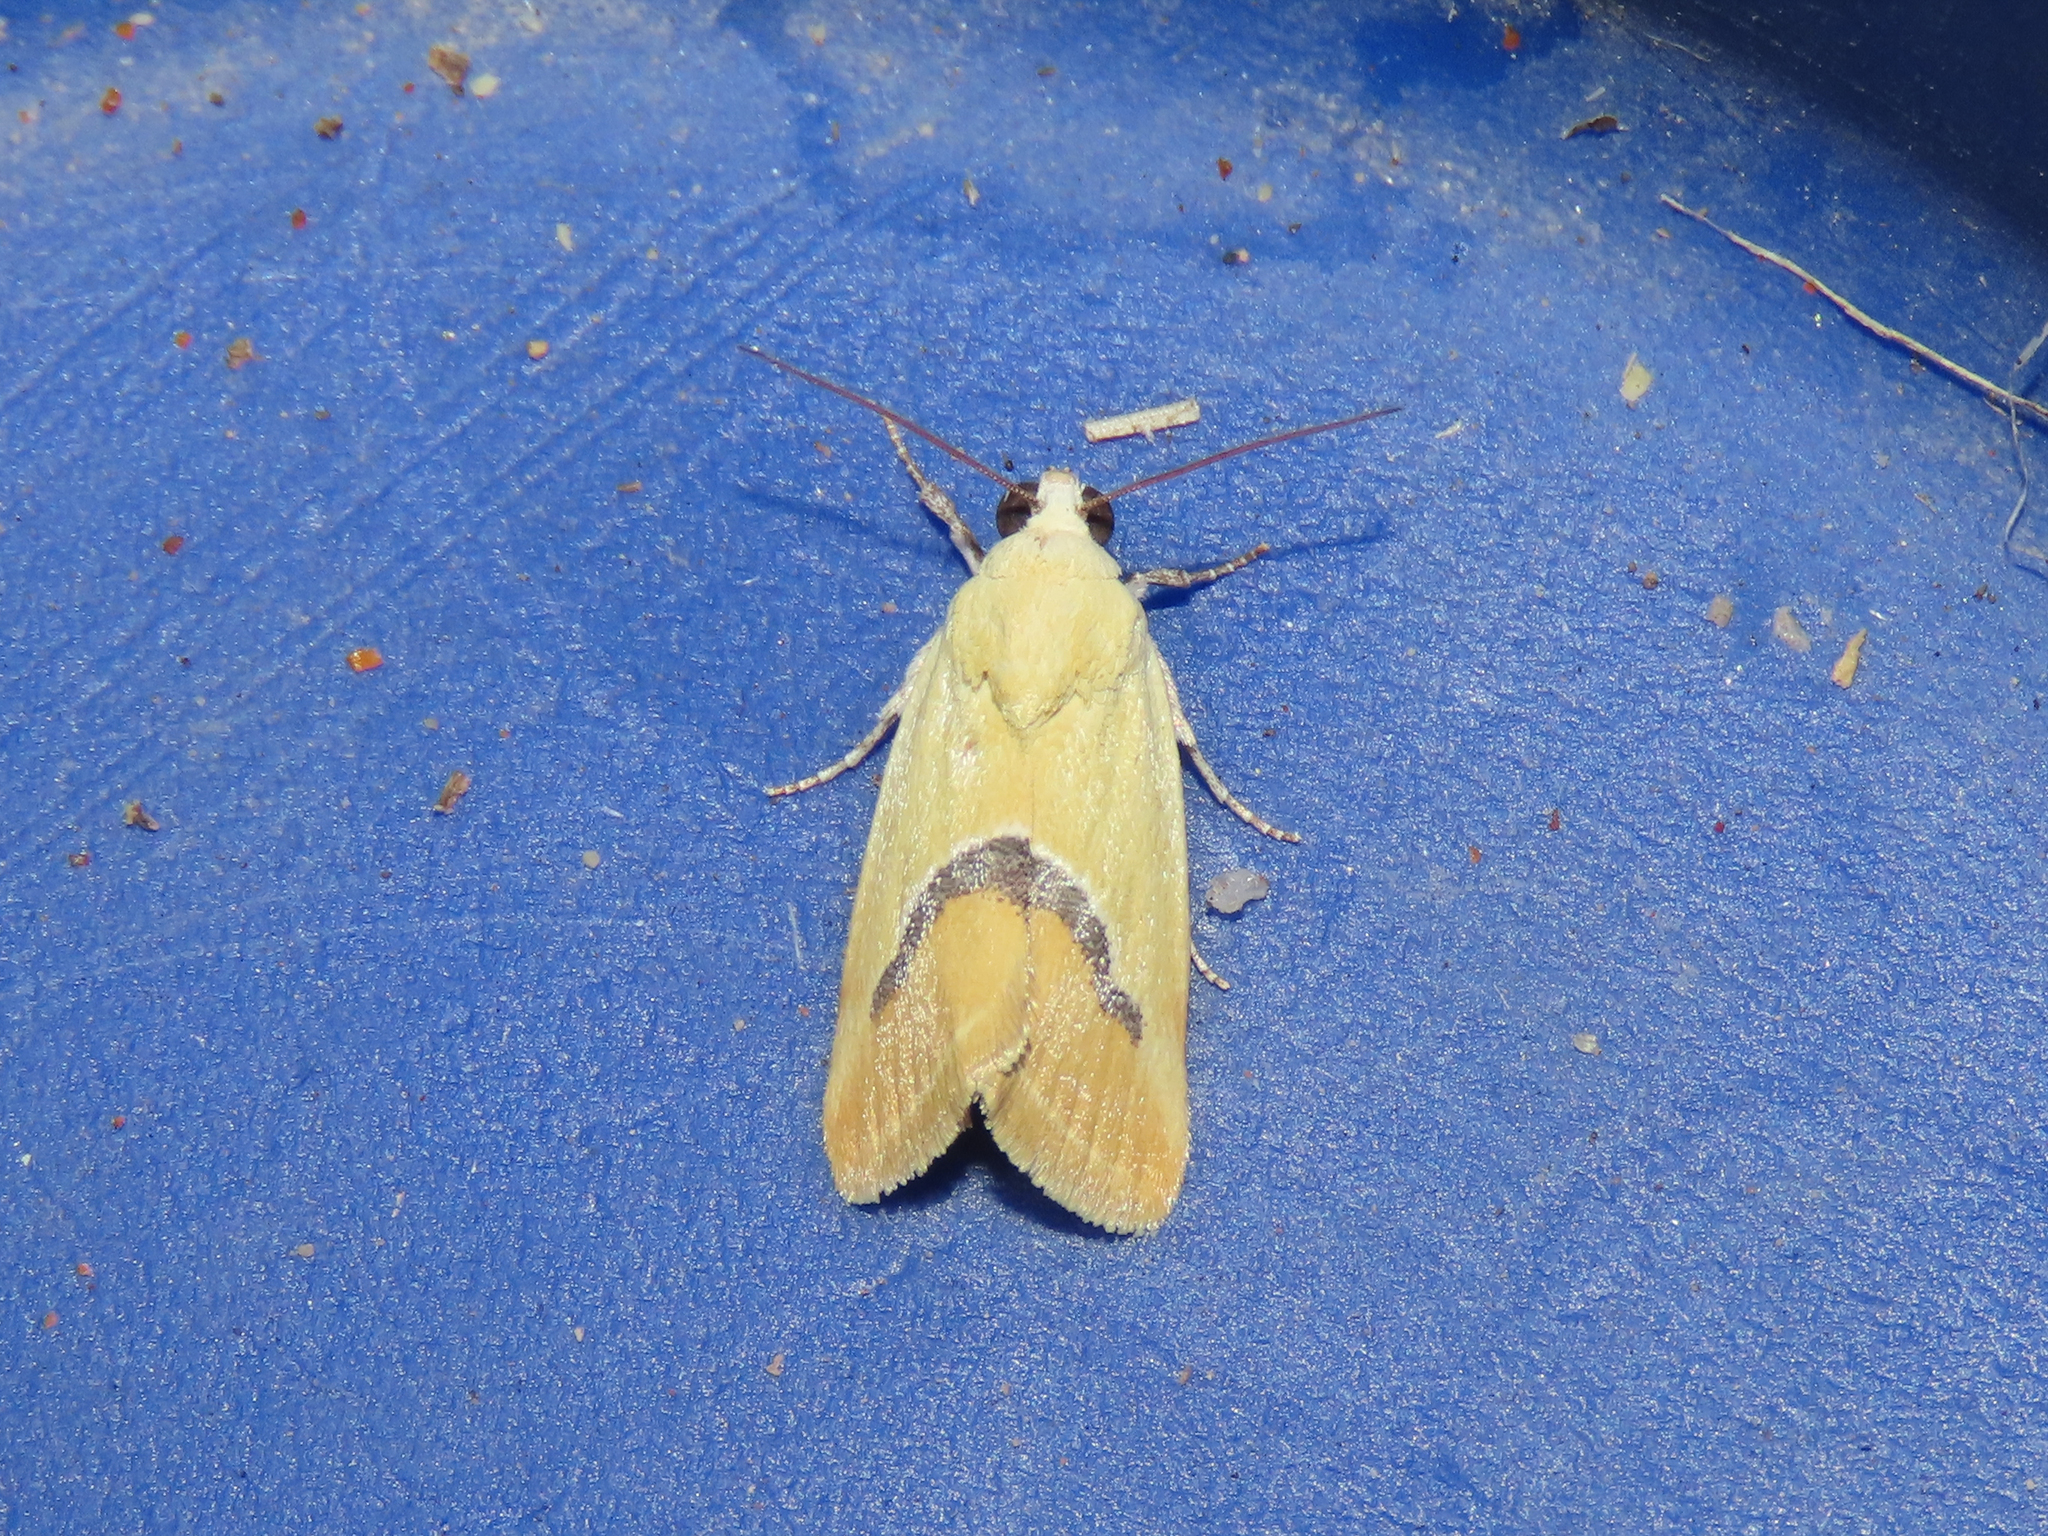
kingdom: Animalia
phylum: Arthropoda
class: Insecta
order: Lepidoptera
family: Noctuidae
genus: Ponometia
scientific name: Ponometia venustula
